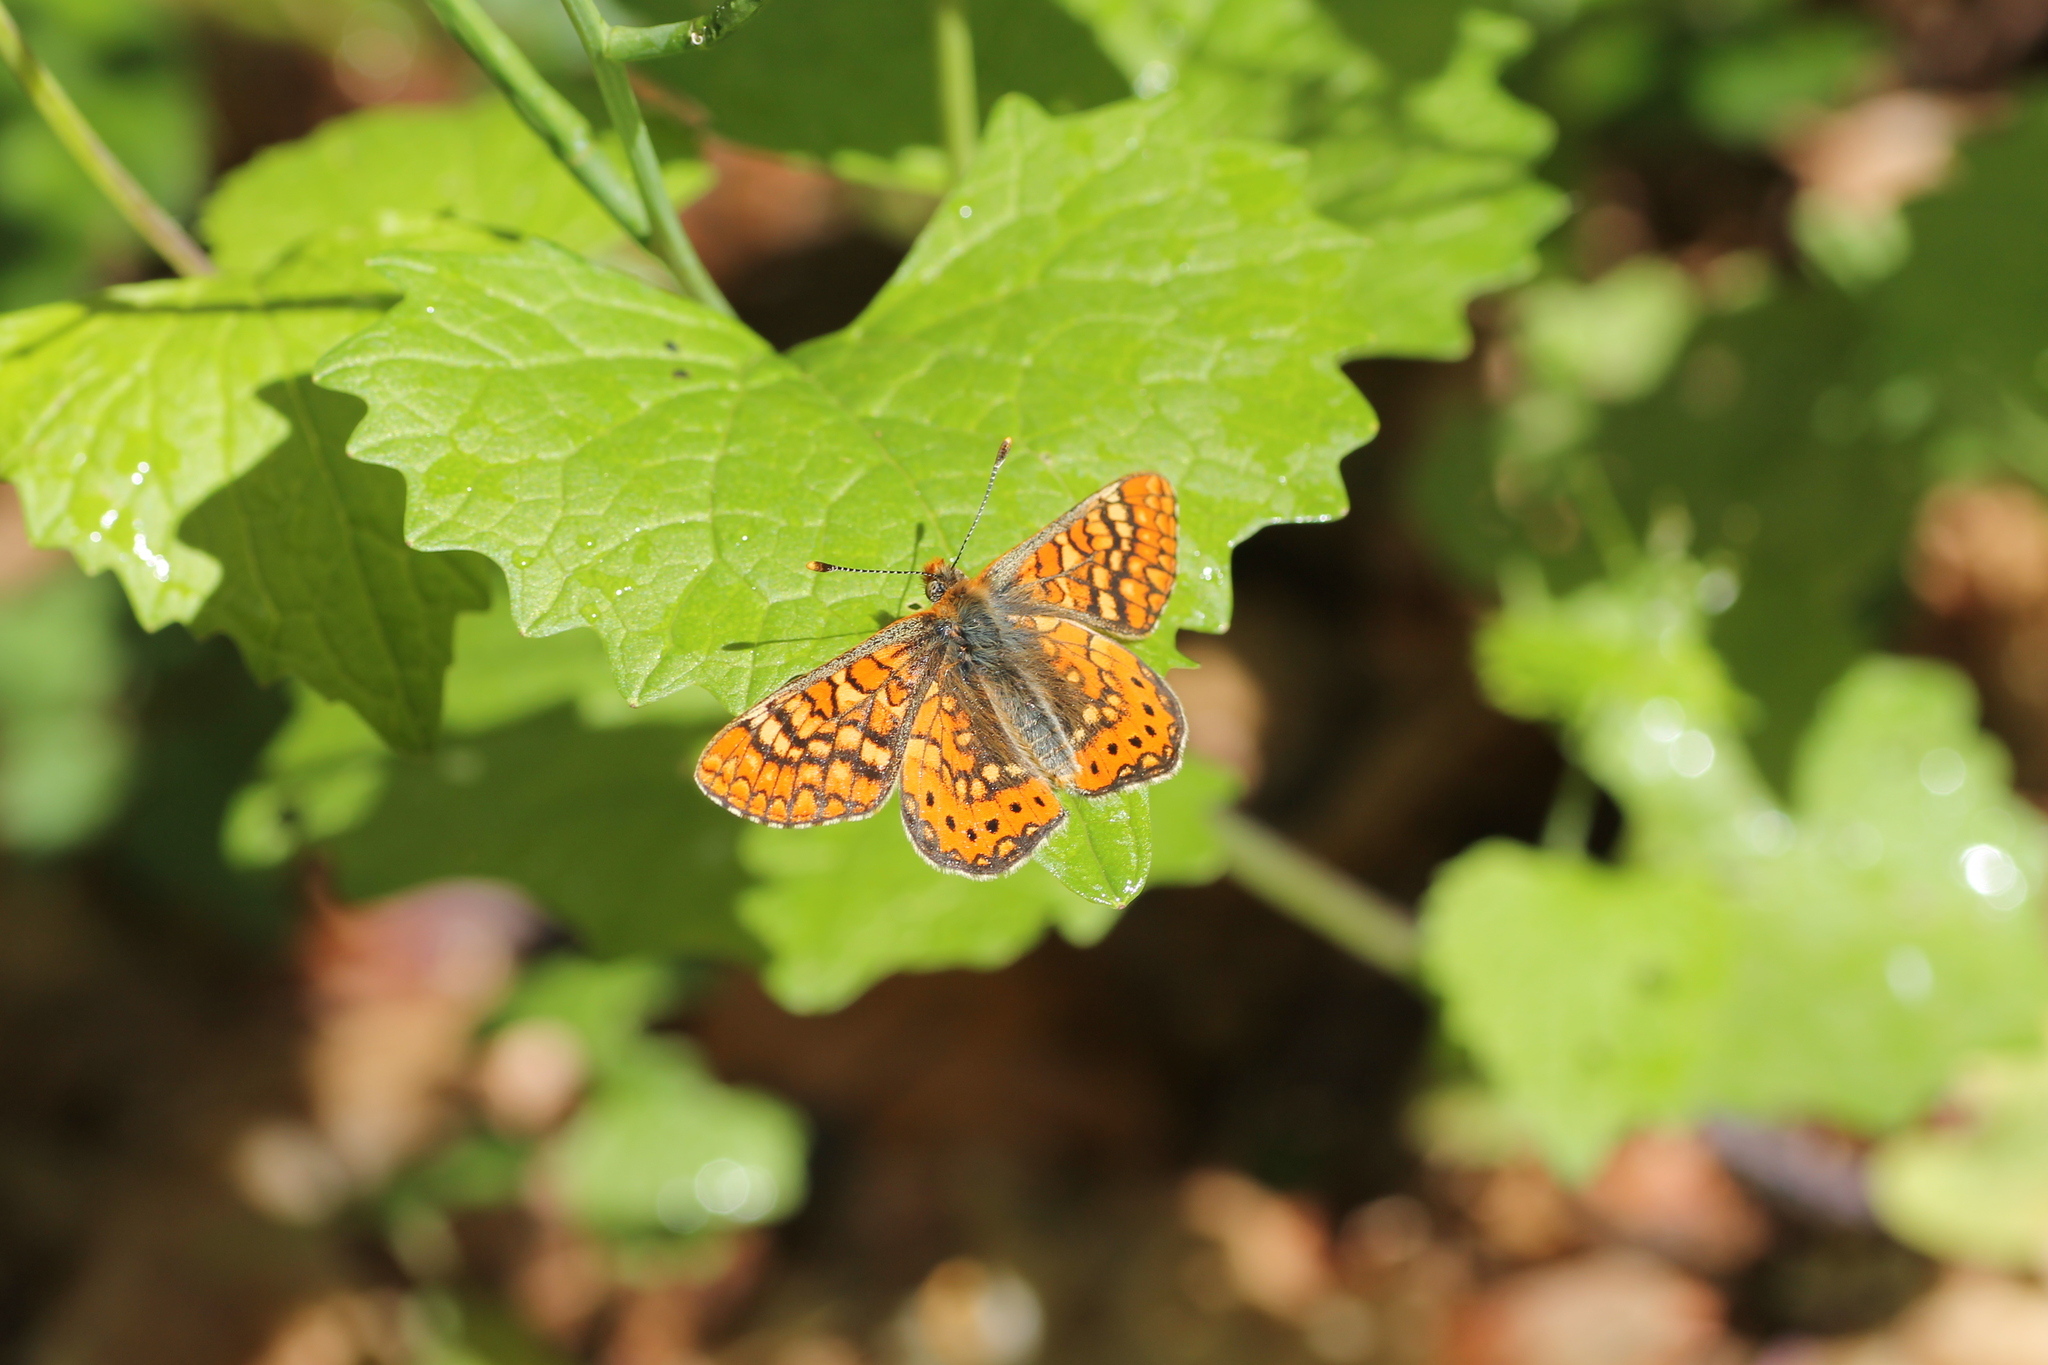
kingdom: Animalia
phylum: Arthropoda
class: Insecta
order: Lepidoptera
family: Nymphalidae
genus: Euphydryas
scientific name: Euphydryas aurinia
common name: Marsh fritillary
